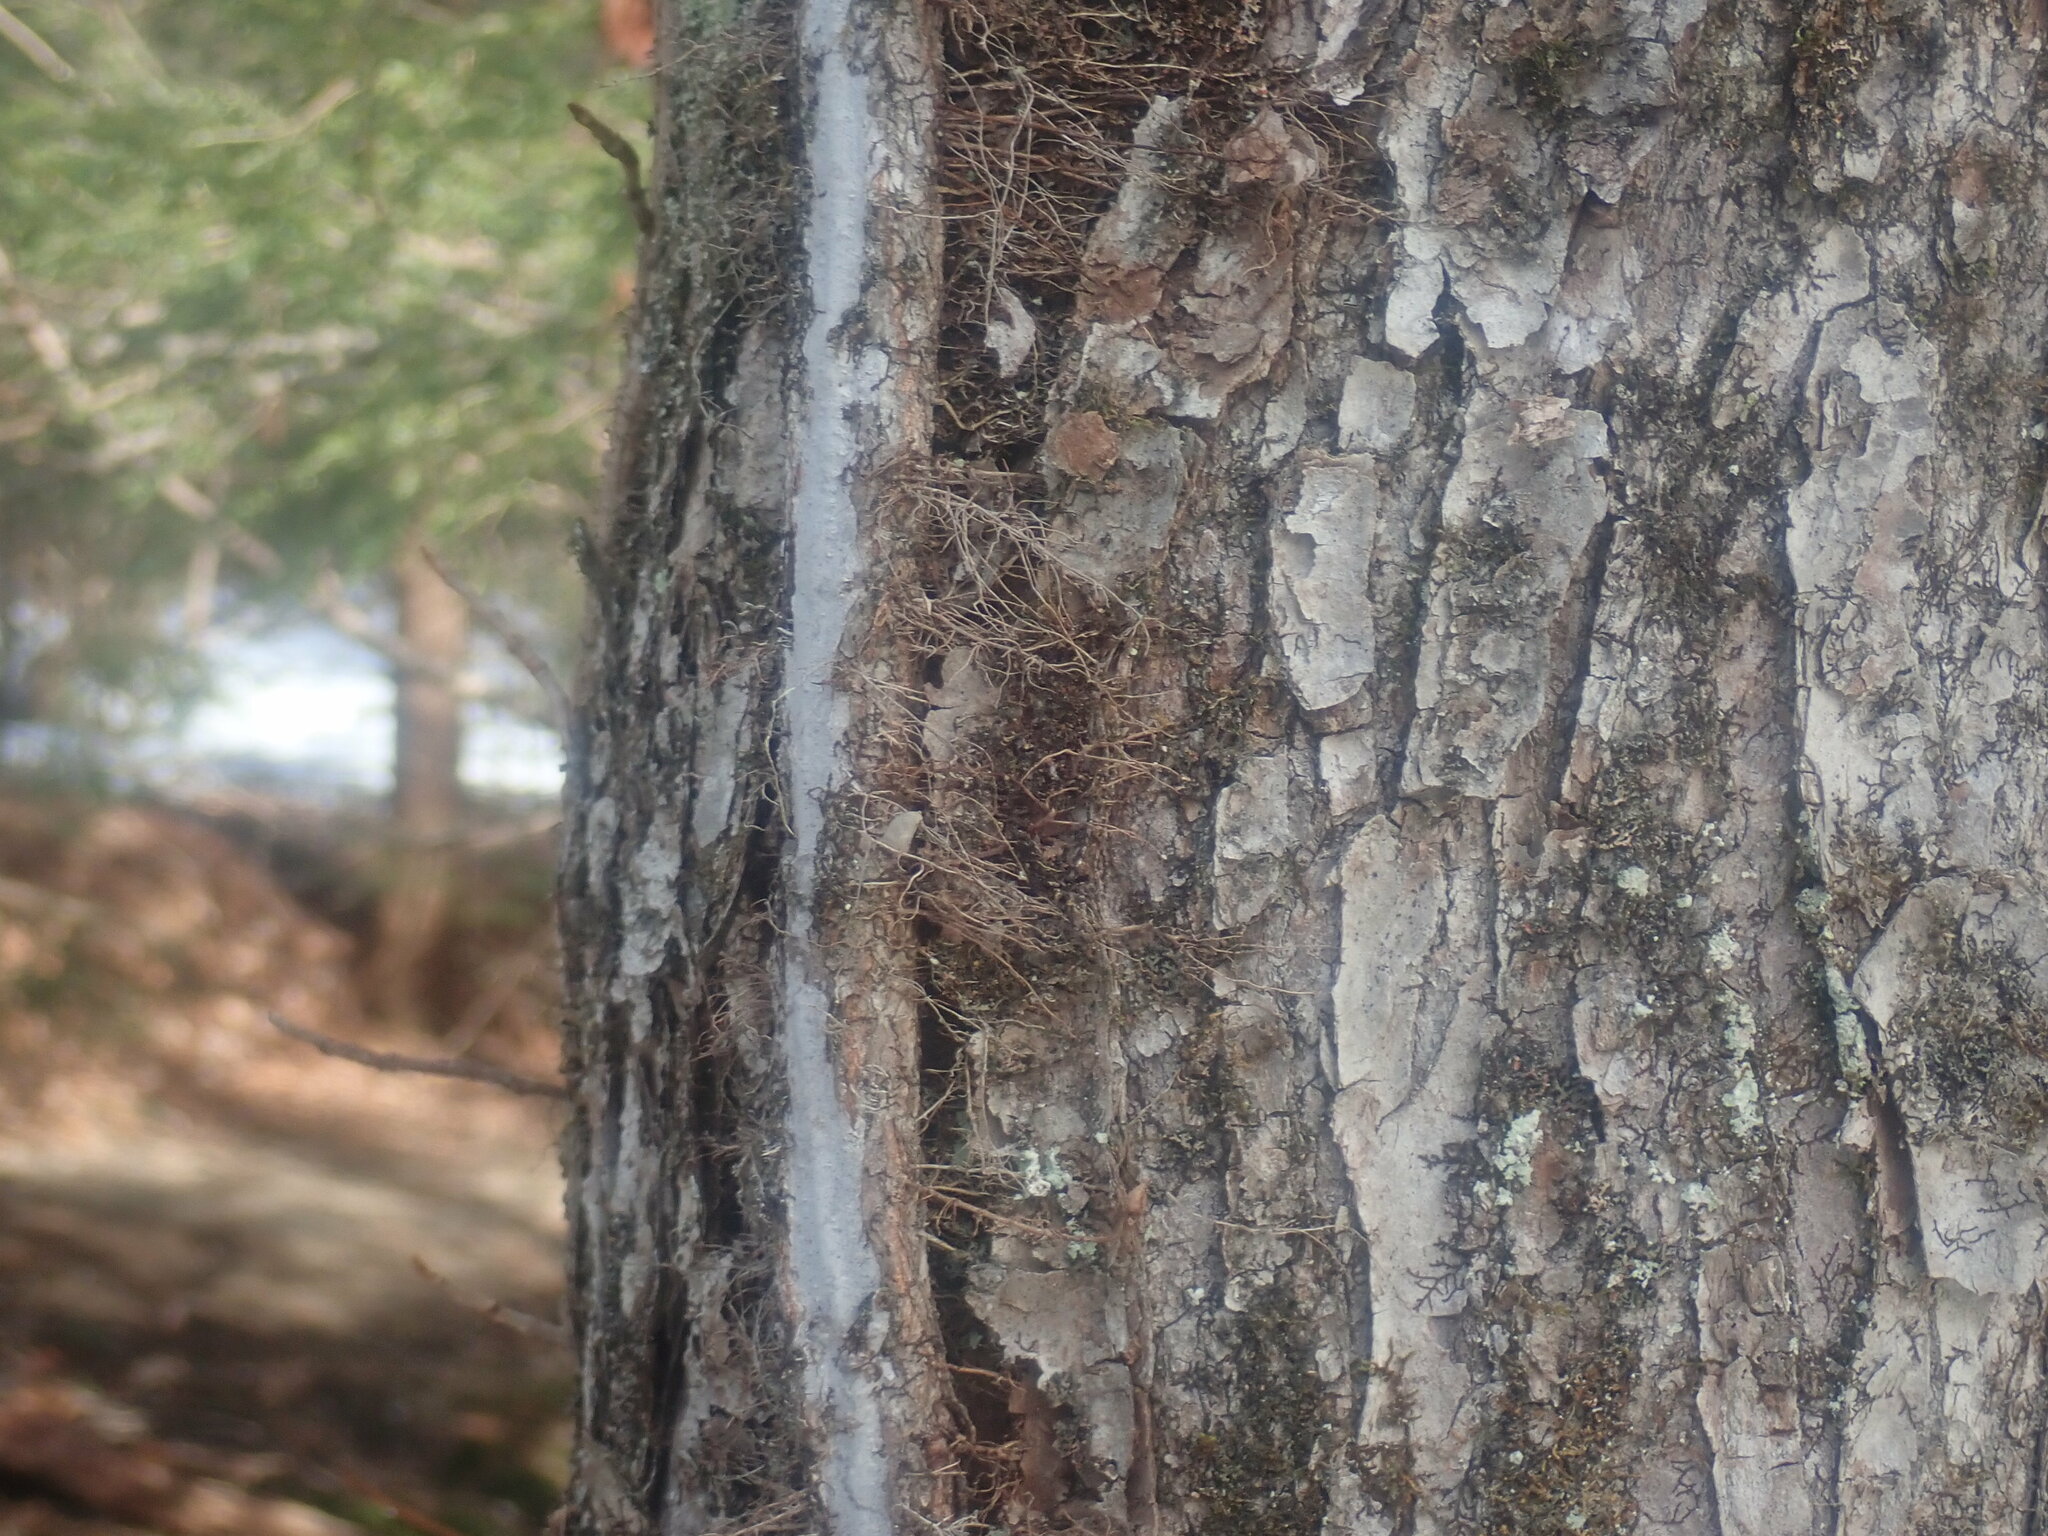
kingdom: Plantae
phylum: Tracheophyta
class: Magnoliopsida
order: Sapindales
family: Anacardiaceae
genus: Toxicodendron
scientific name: Toxicodendron radicans
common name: Poison ivy
